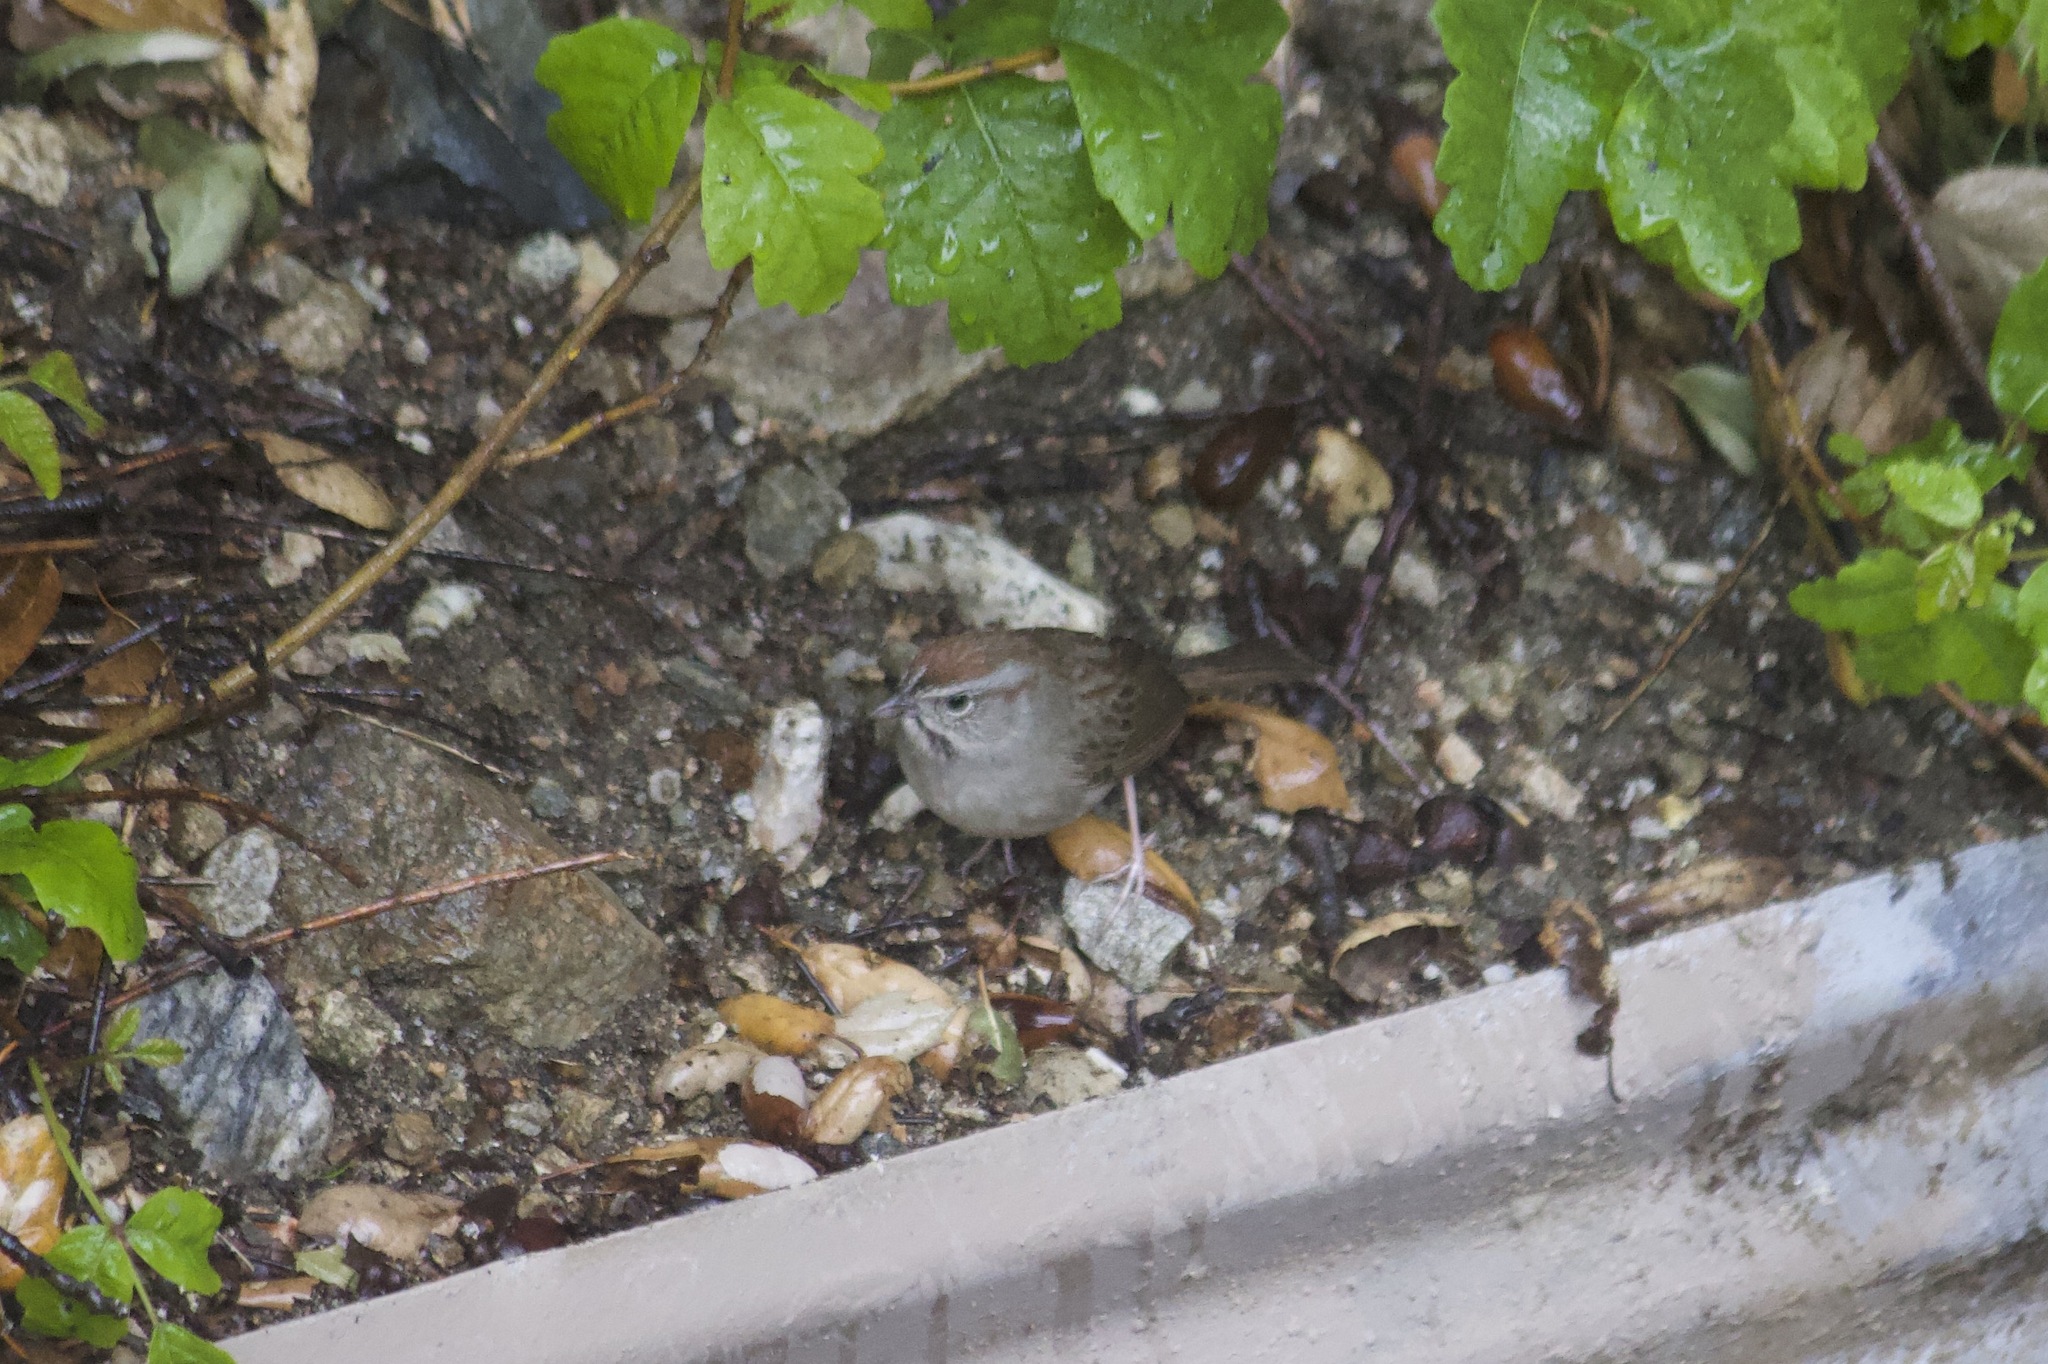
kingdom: Animalia
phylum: Chordata
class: Aves
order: Passeriformes
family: Passerellidae
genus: Aimophila
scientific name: Aimophila ruficeps
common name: Rufous-crowned sparrow
